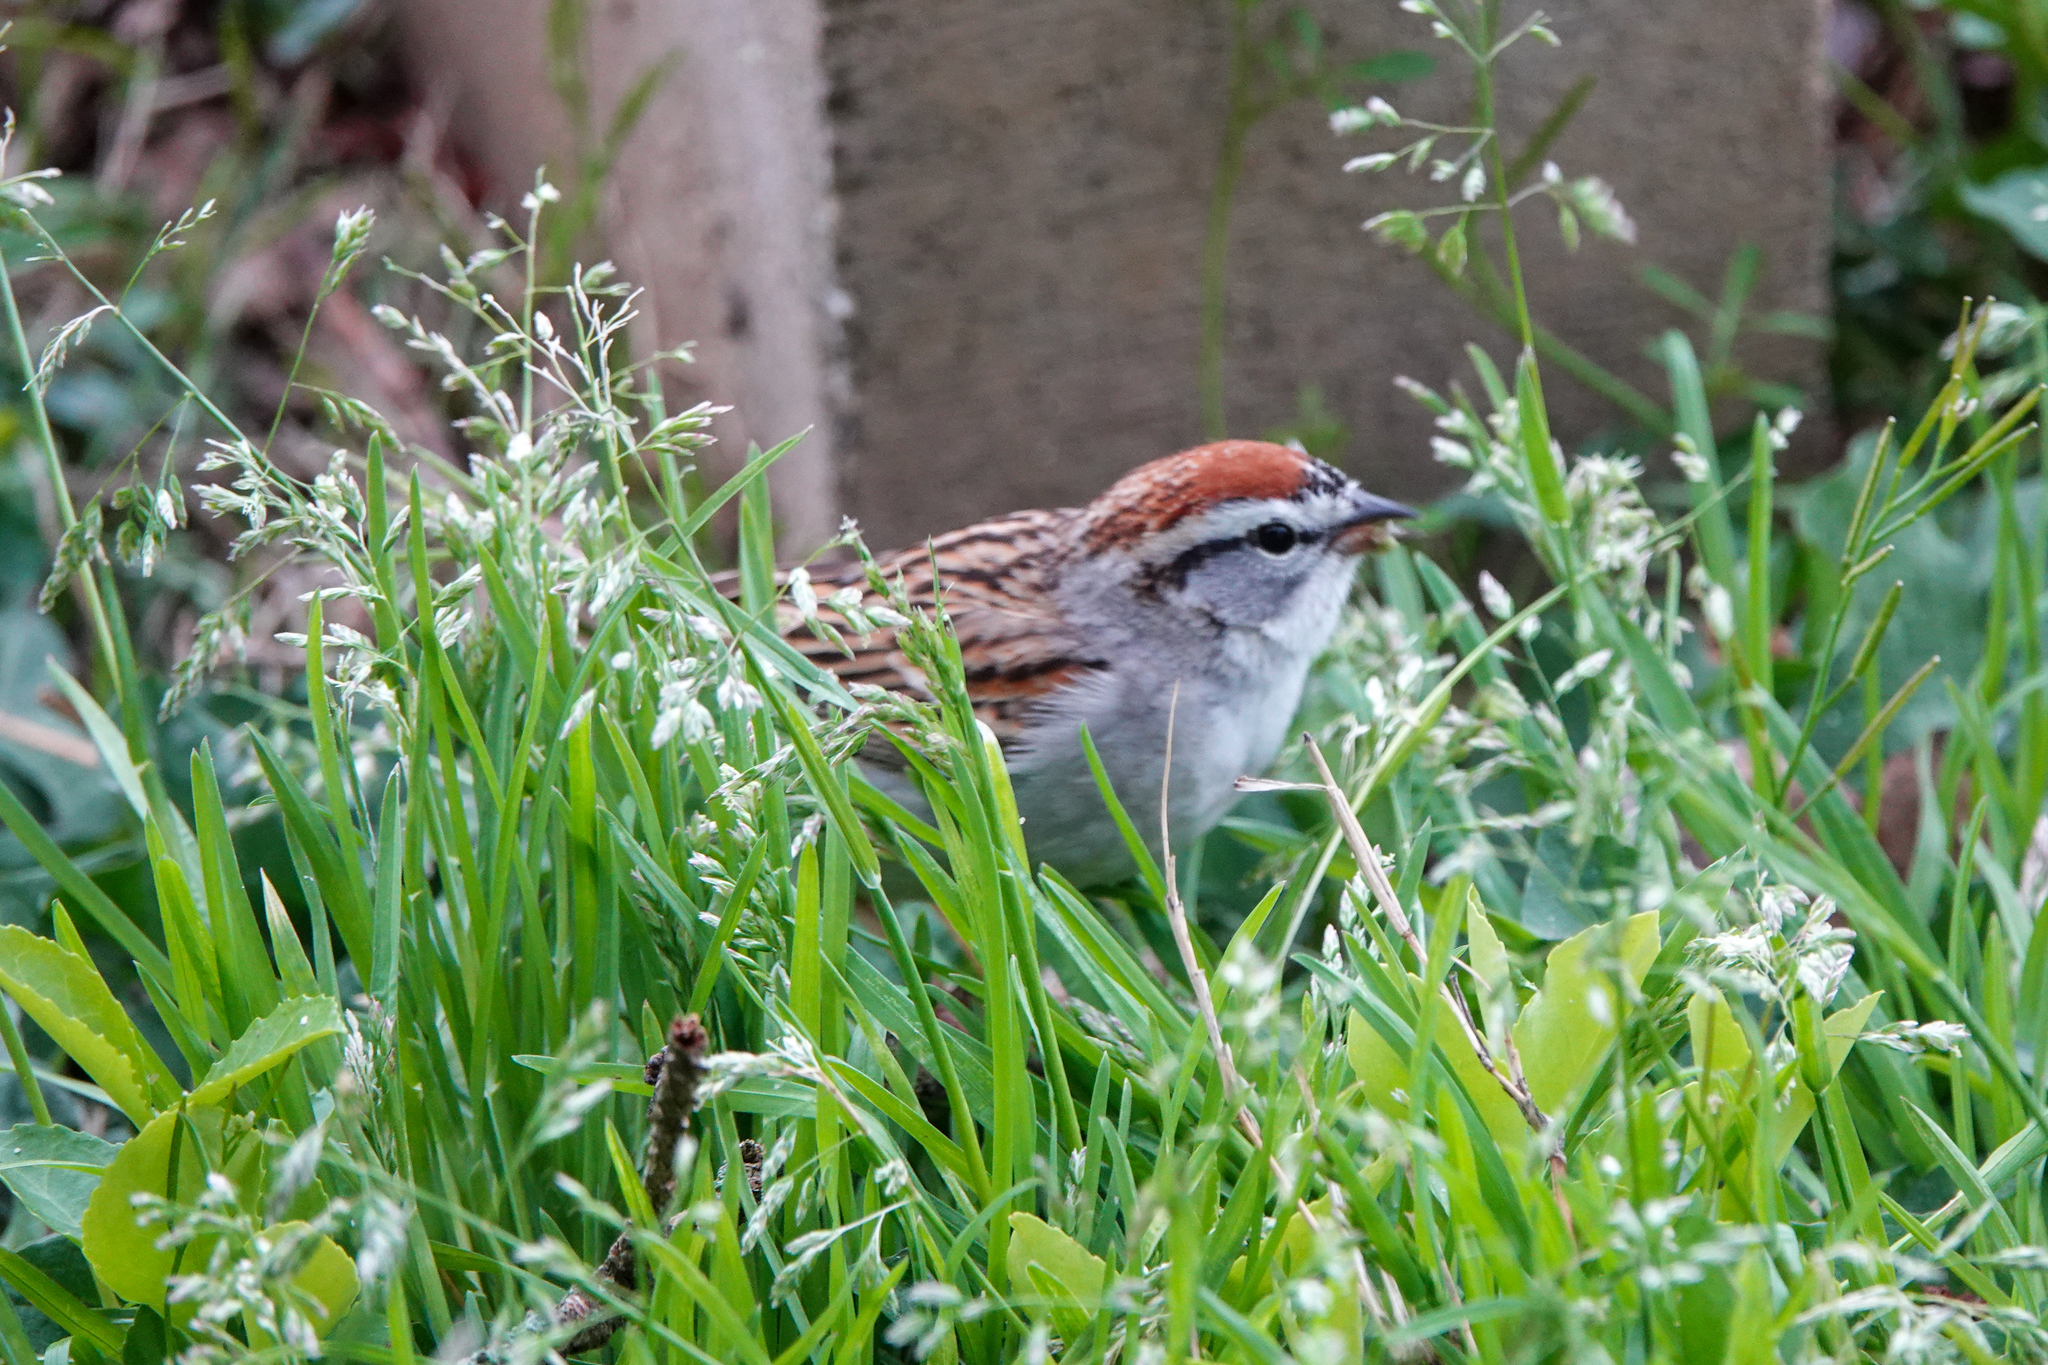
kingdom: Animalia
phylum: Chordata
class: Aves
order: Passeriformes
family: Passerellidae
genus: Spizella
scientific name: Spizella passerina
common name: Chipping sparrow
